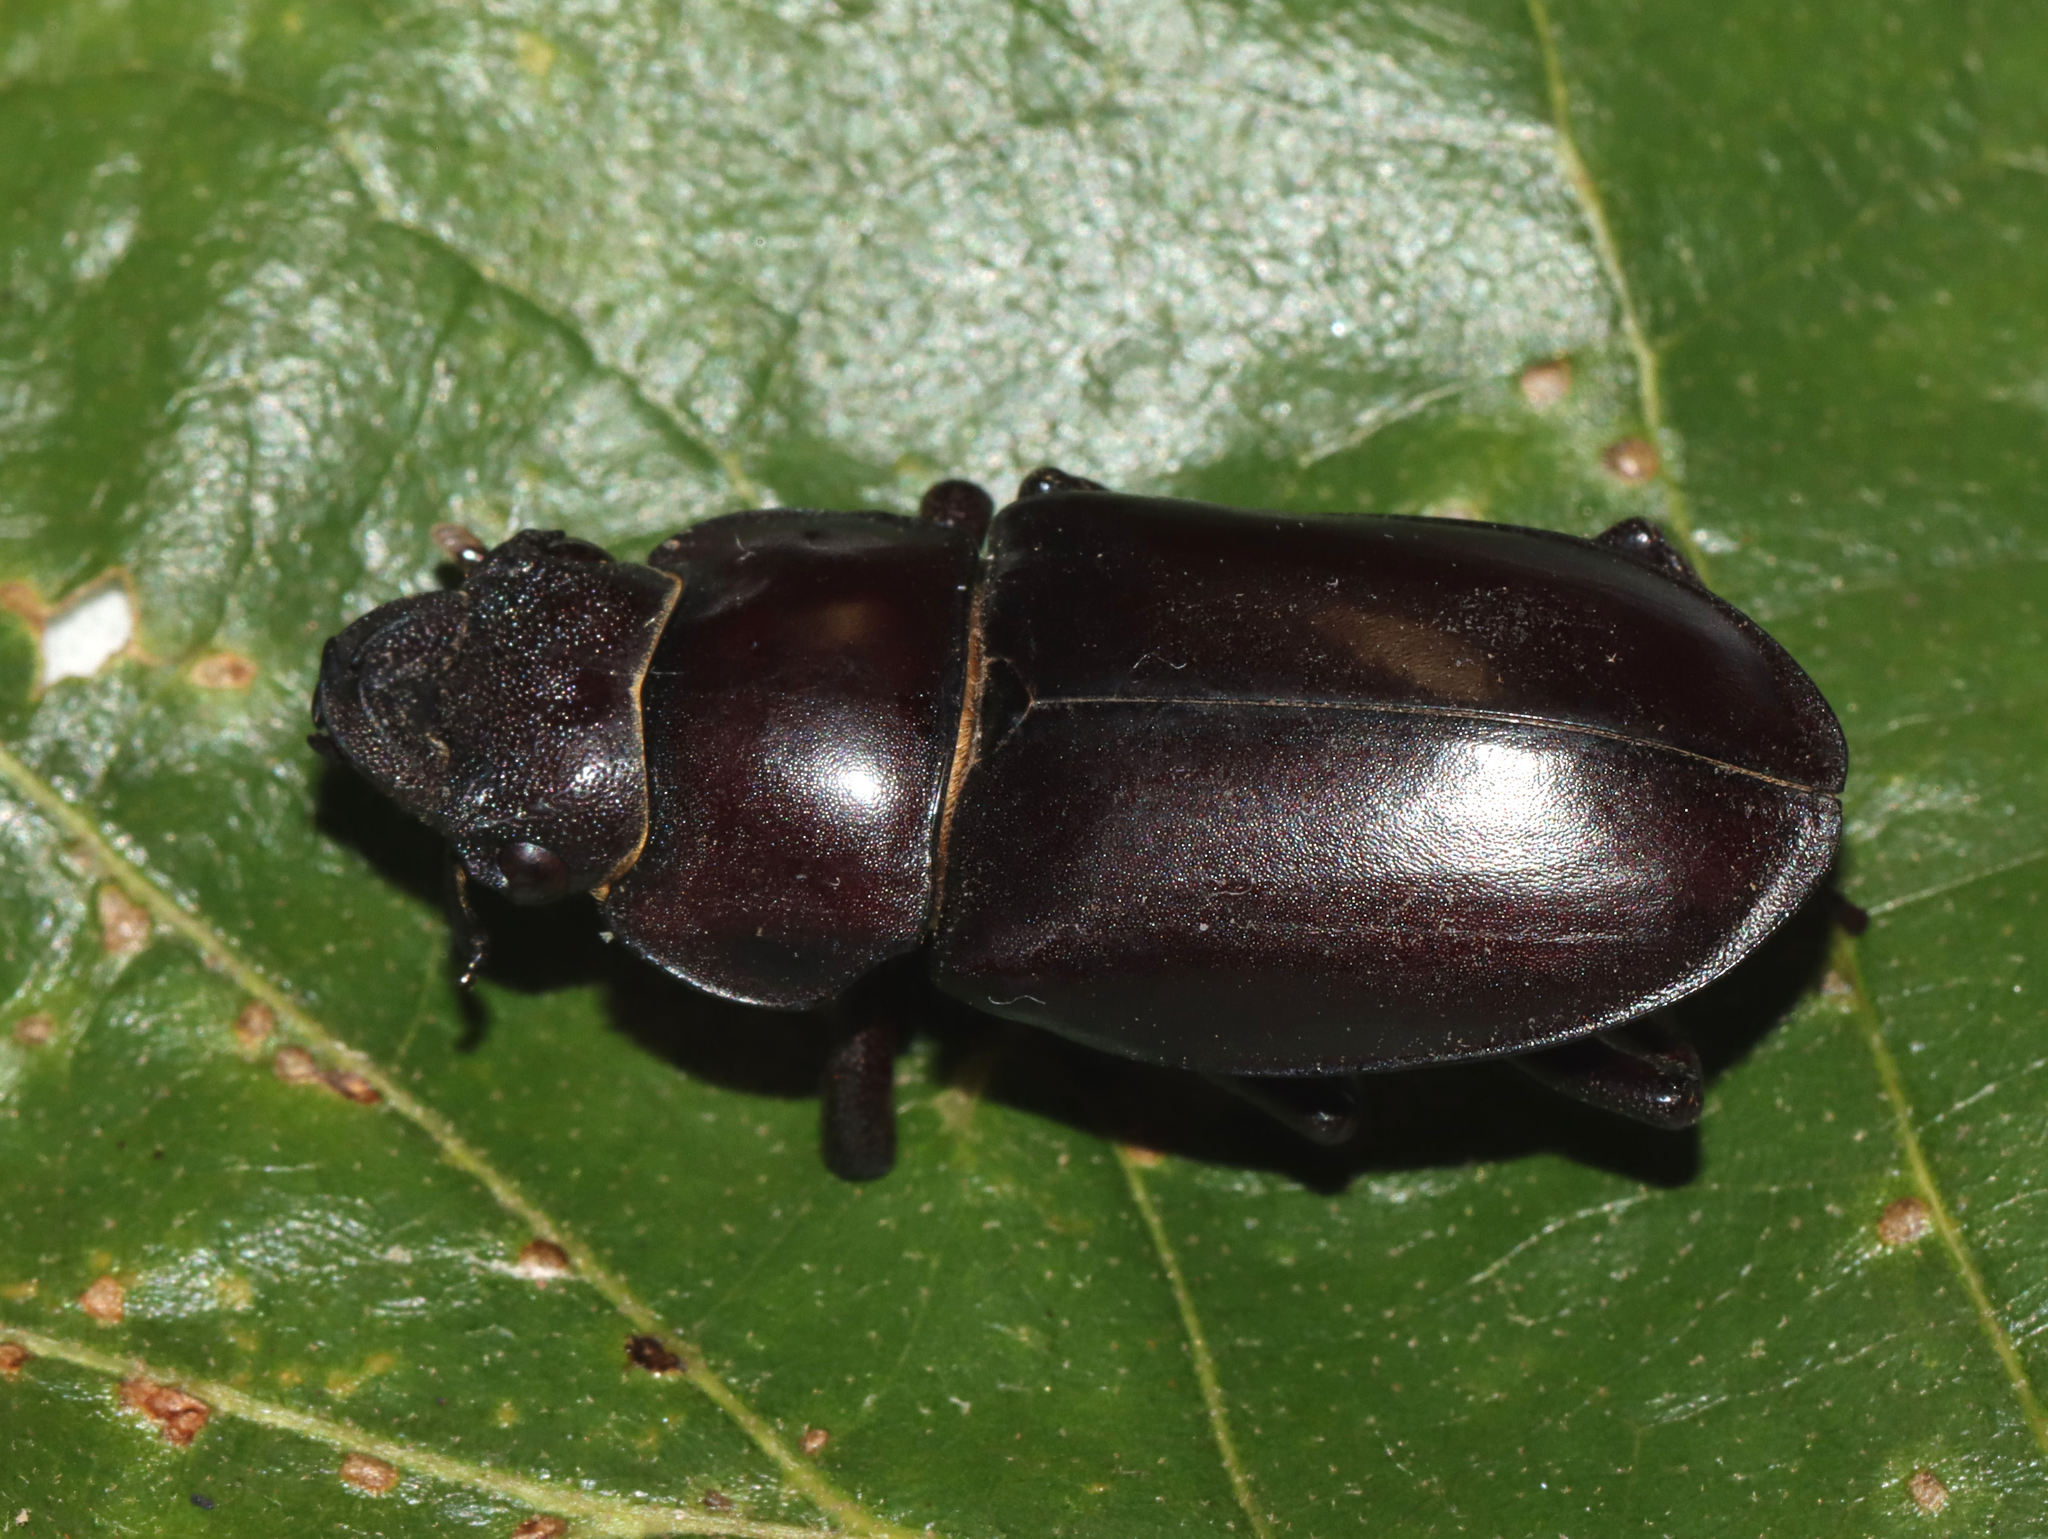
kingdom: Animalia
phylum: Arthropoda
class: Insecta
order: Coleoptera
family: Lucanidae
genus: Lucanus
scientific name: Lucanus elaphus
